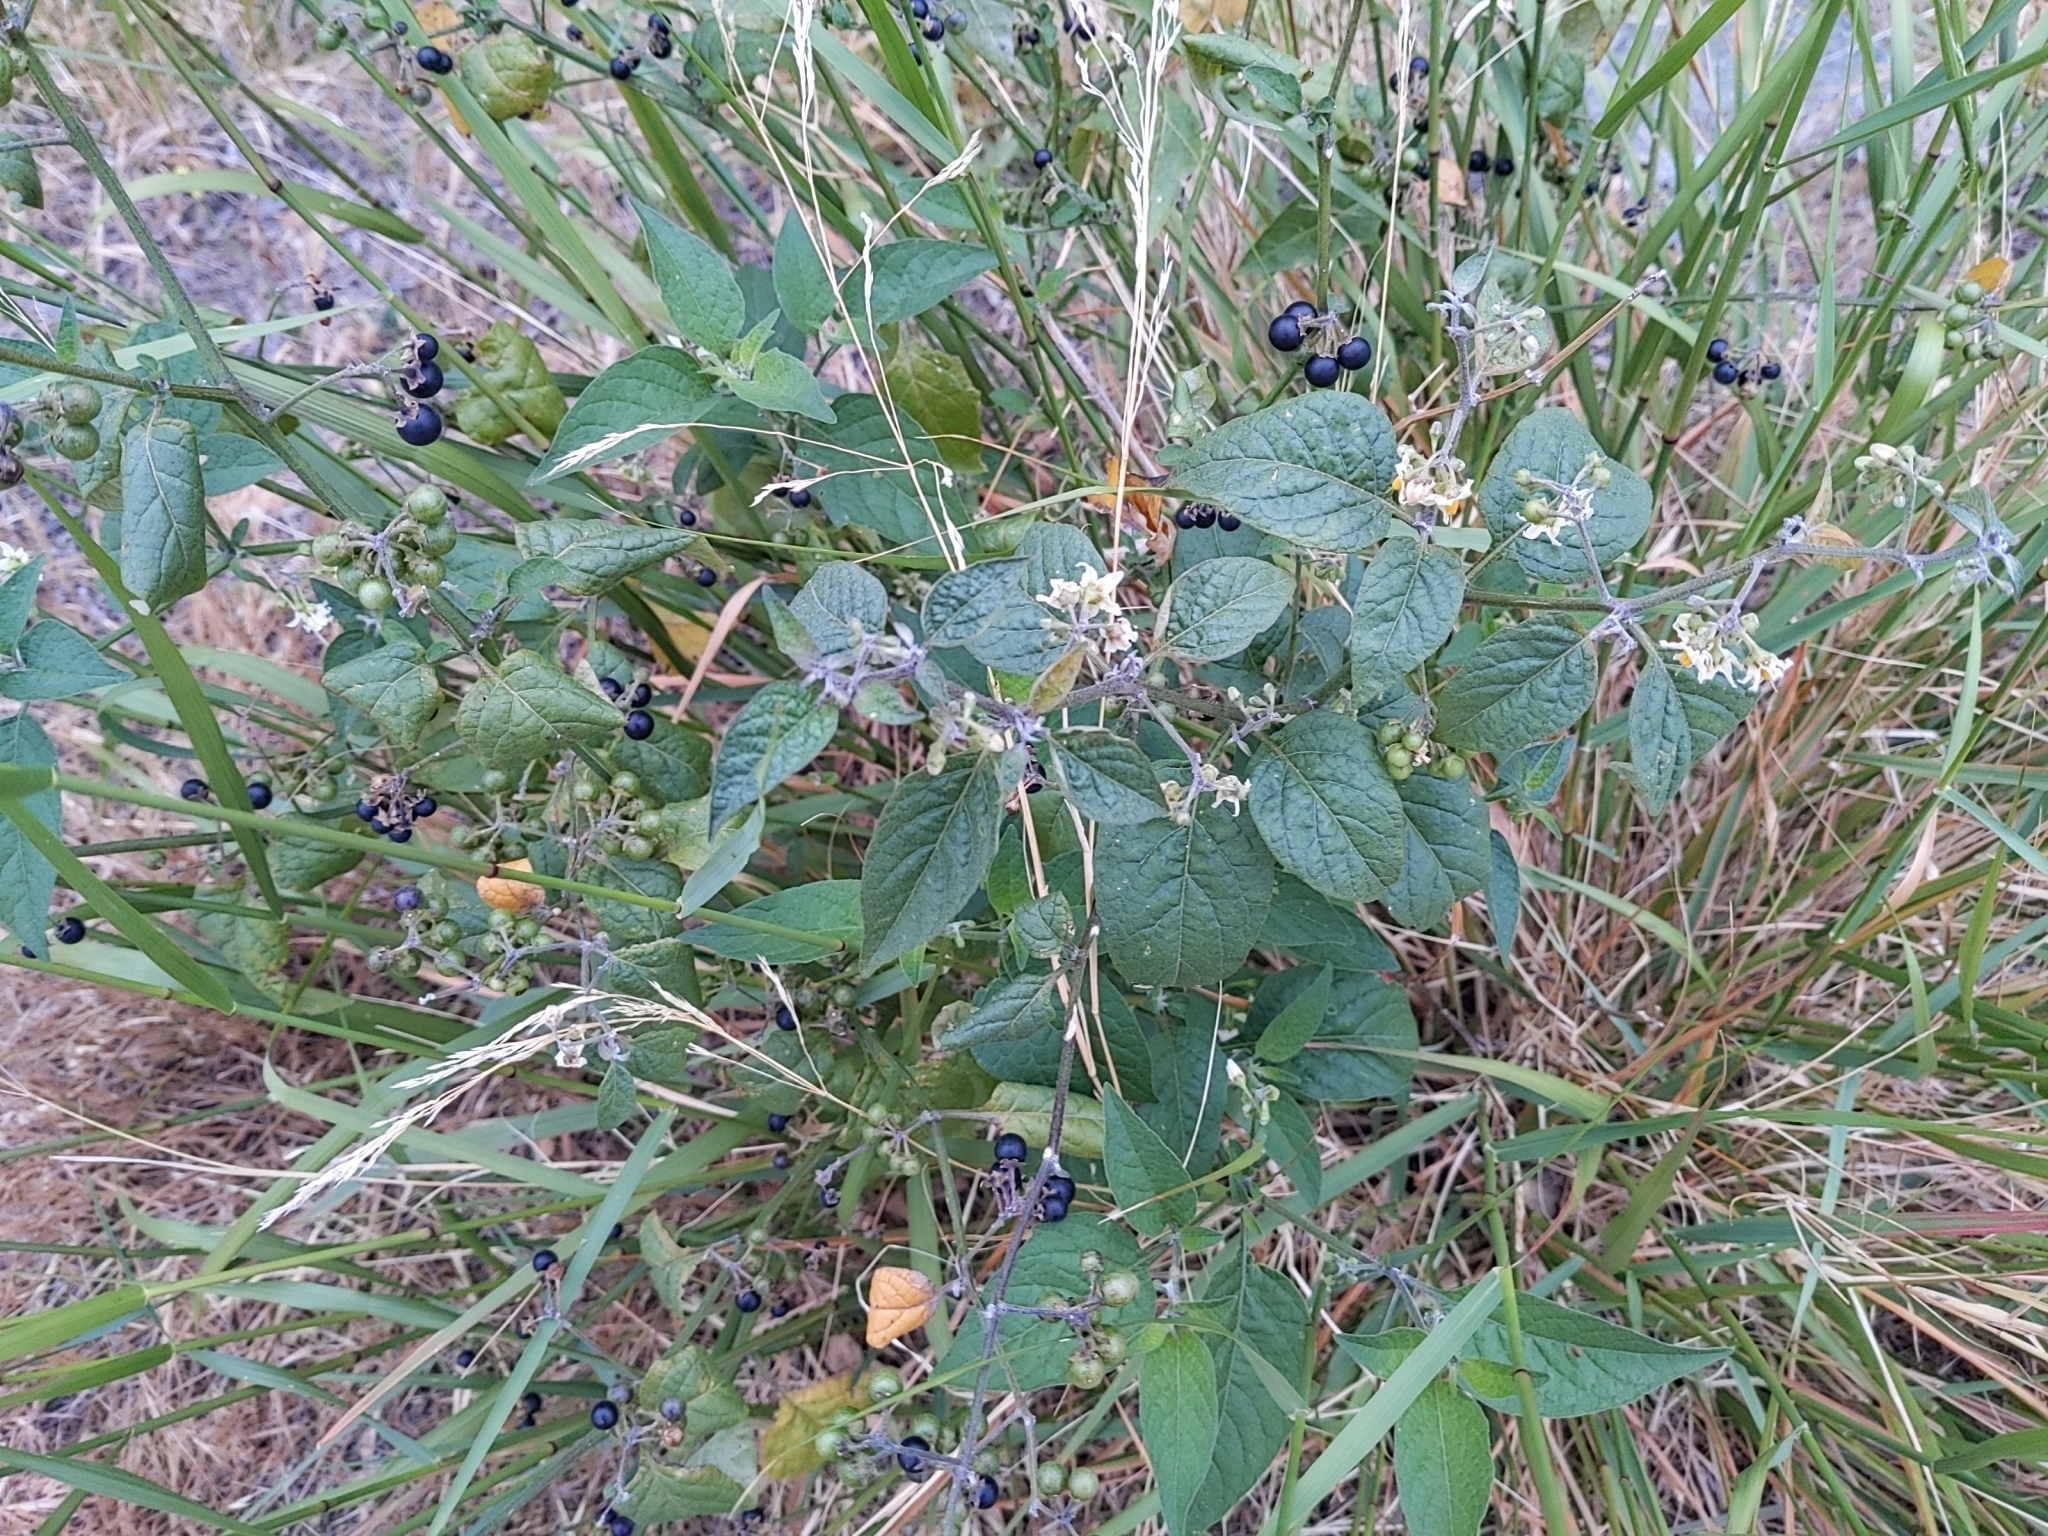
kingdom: Plantae
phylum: Tracheophyta
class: Magnoliopsida
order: Solanales
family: Solanaceae
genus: Solanum
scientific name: Solanum douglasii
